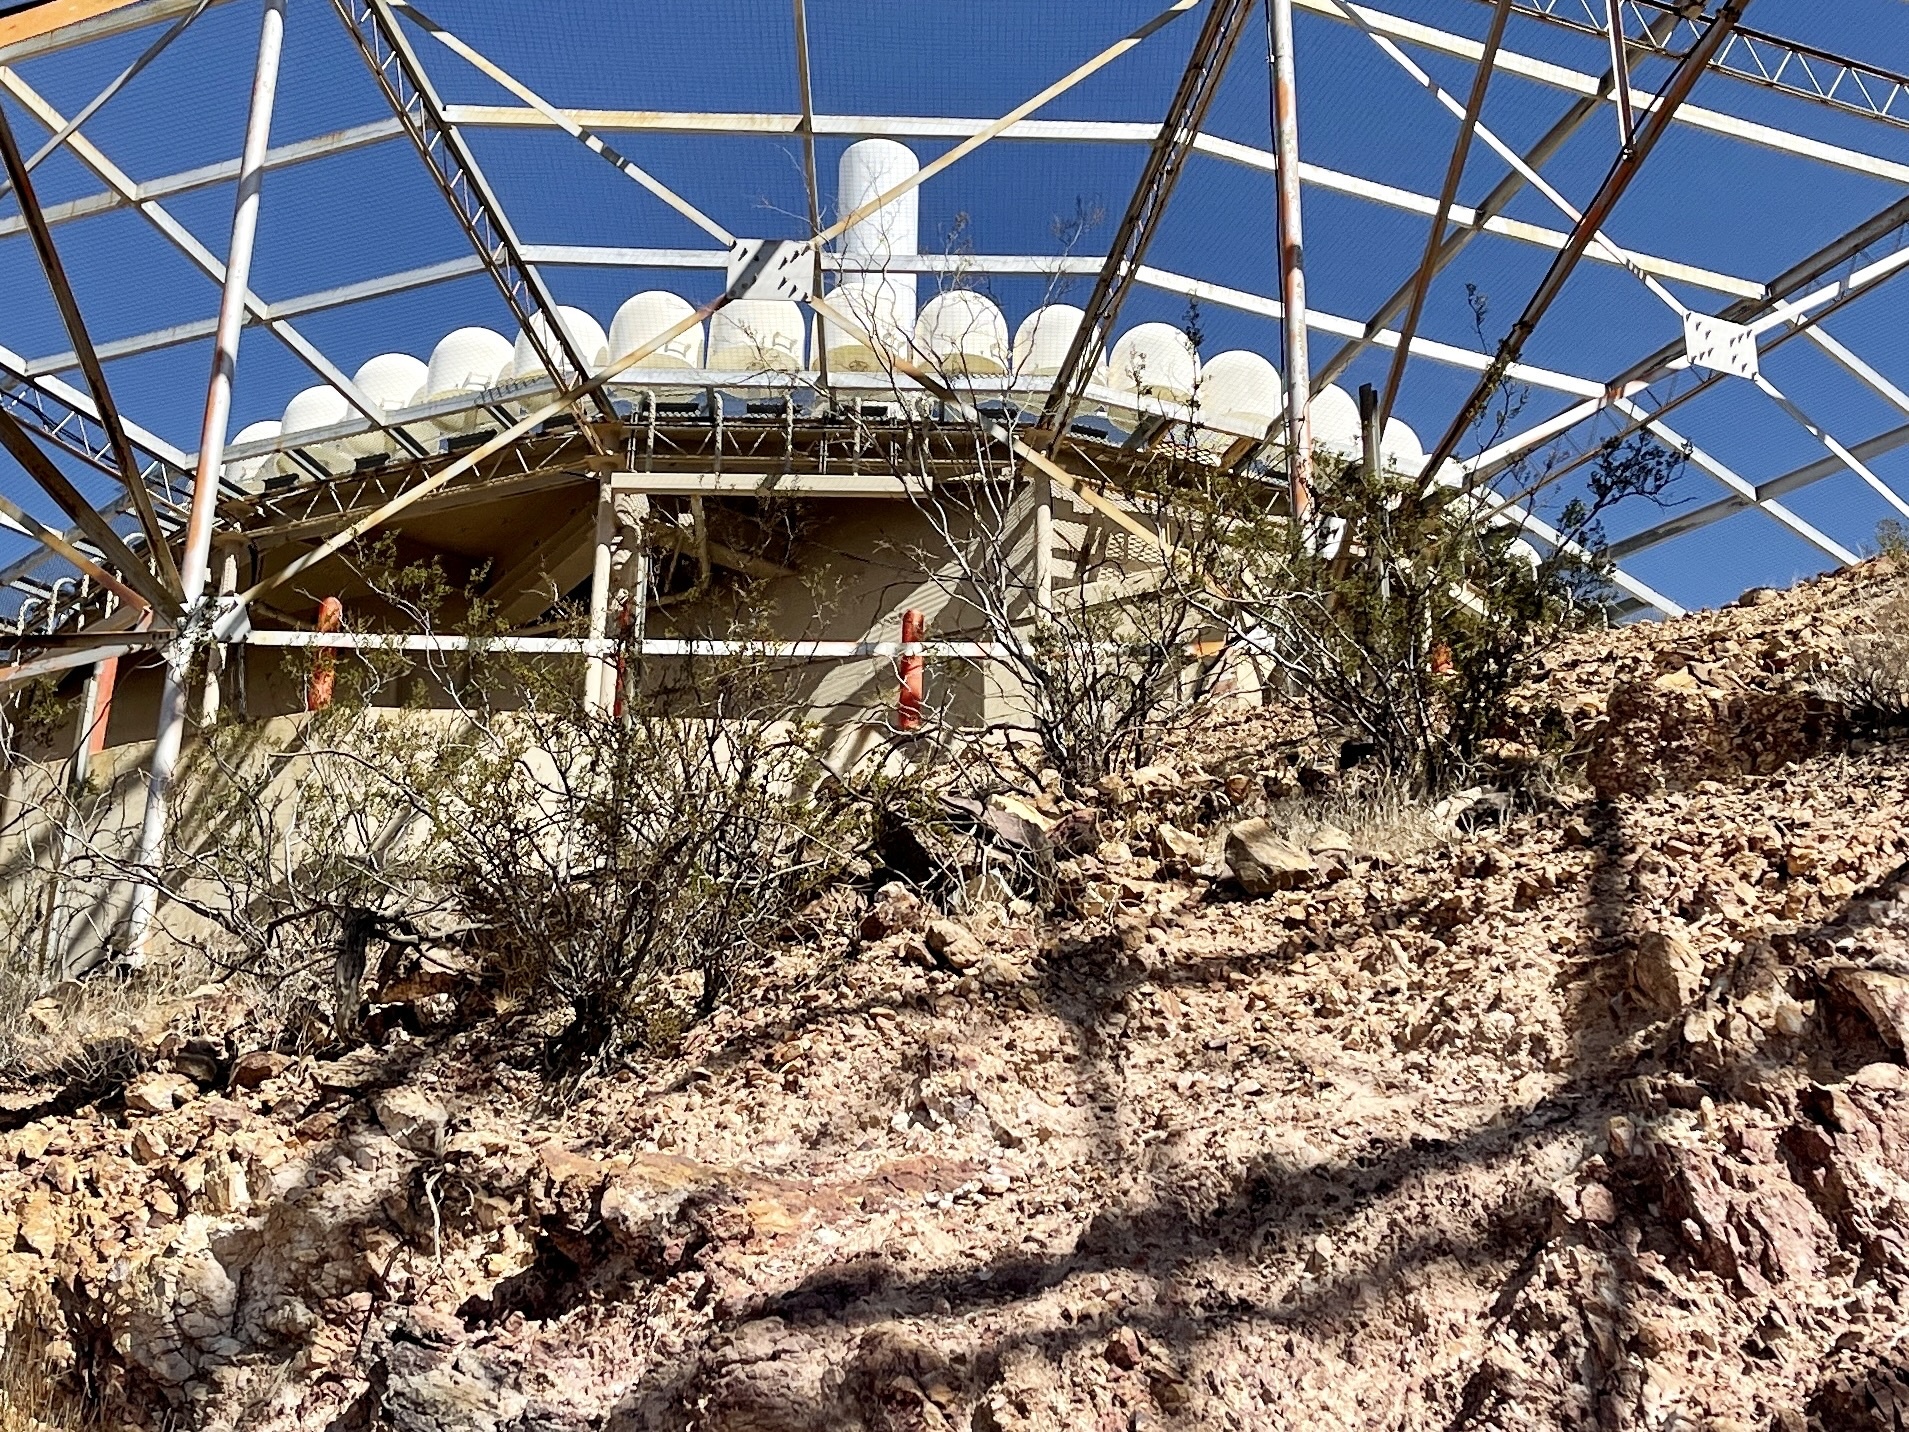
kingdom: Plantae
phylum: Tracheophyta
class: Magnoliopsida
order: Zygophyllales
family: Zygophyllaceae
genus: Larrea
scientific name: Larrea tridentata
